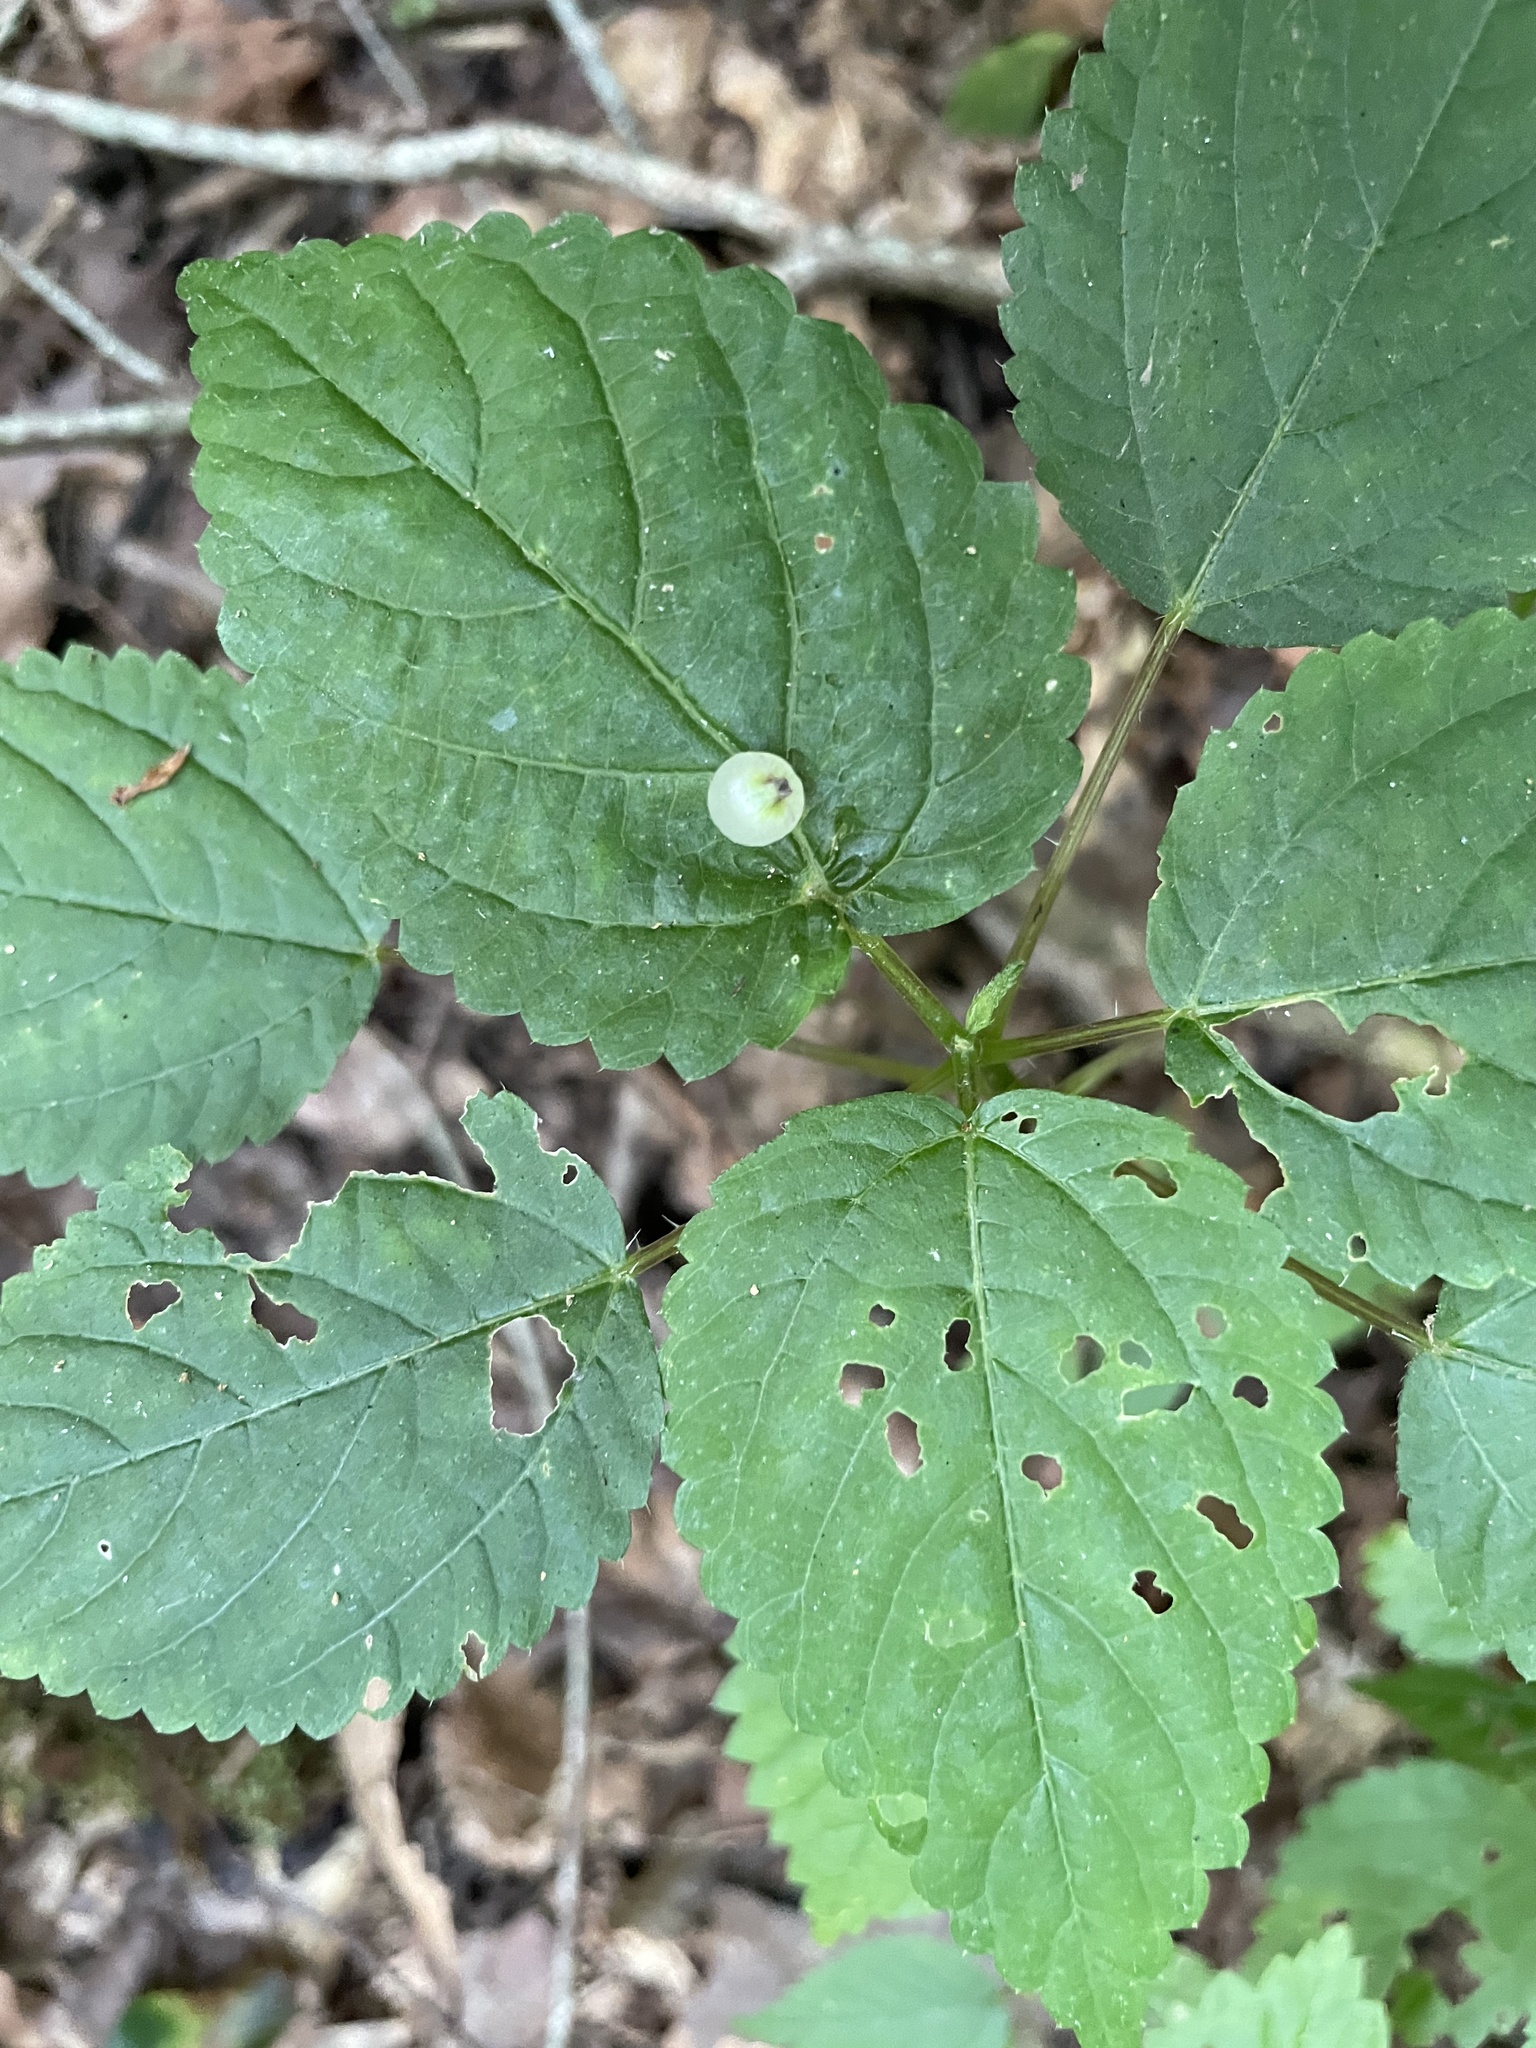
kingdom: Animalia
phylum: Arthropoda
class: Insecta
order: Diptera
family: Cecidomyiidae
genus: Dasineura
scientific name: Dasineura investita
